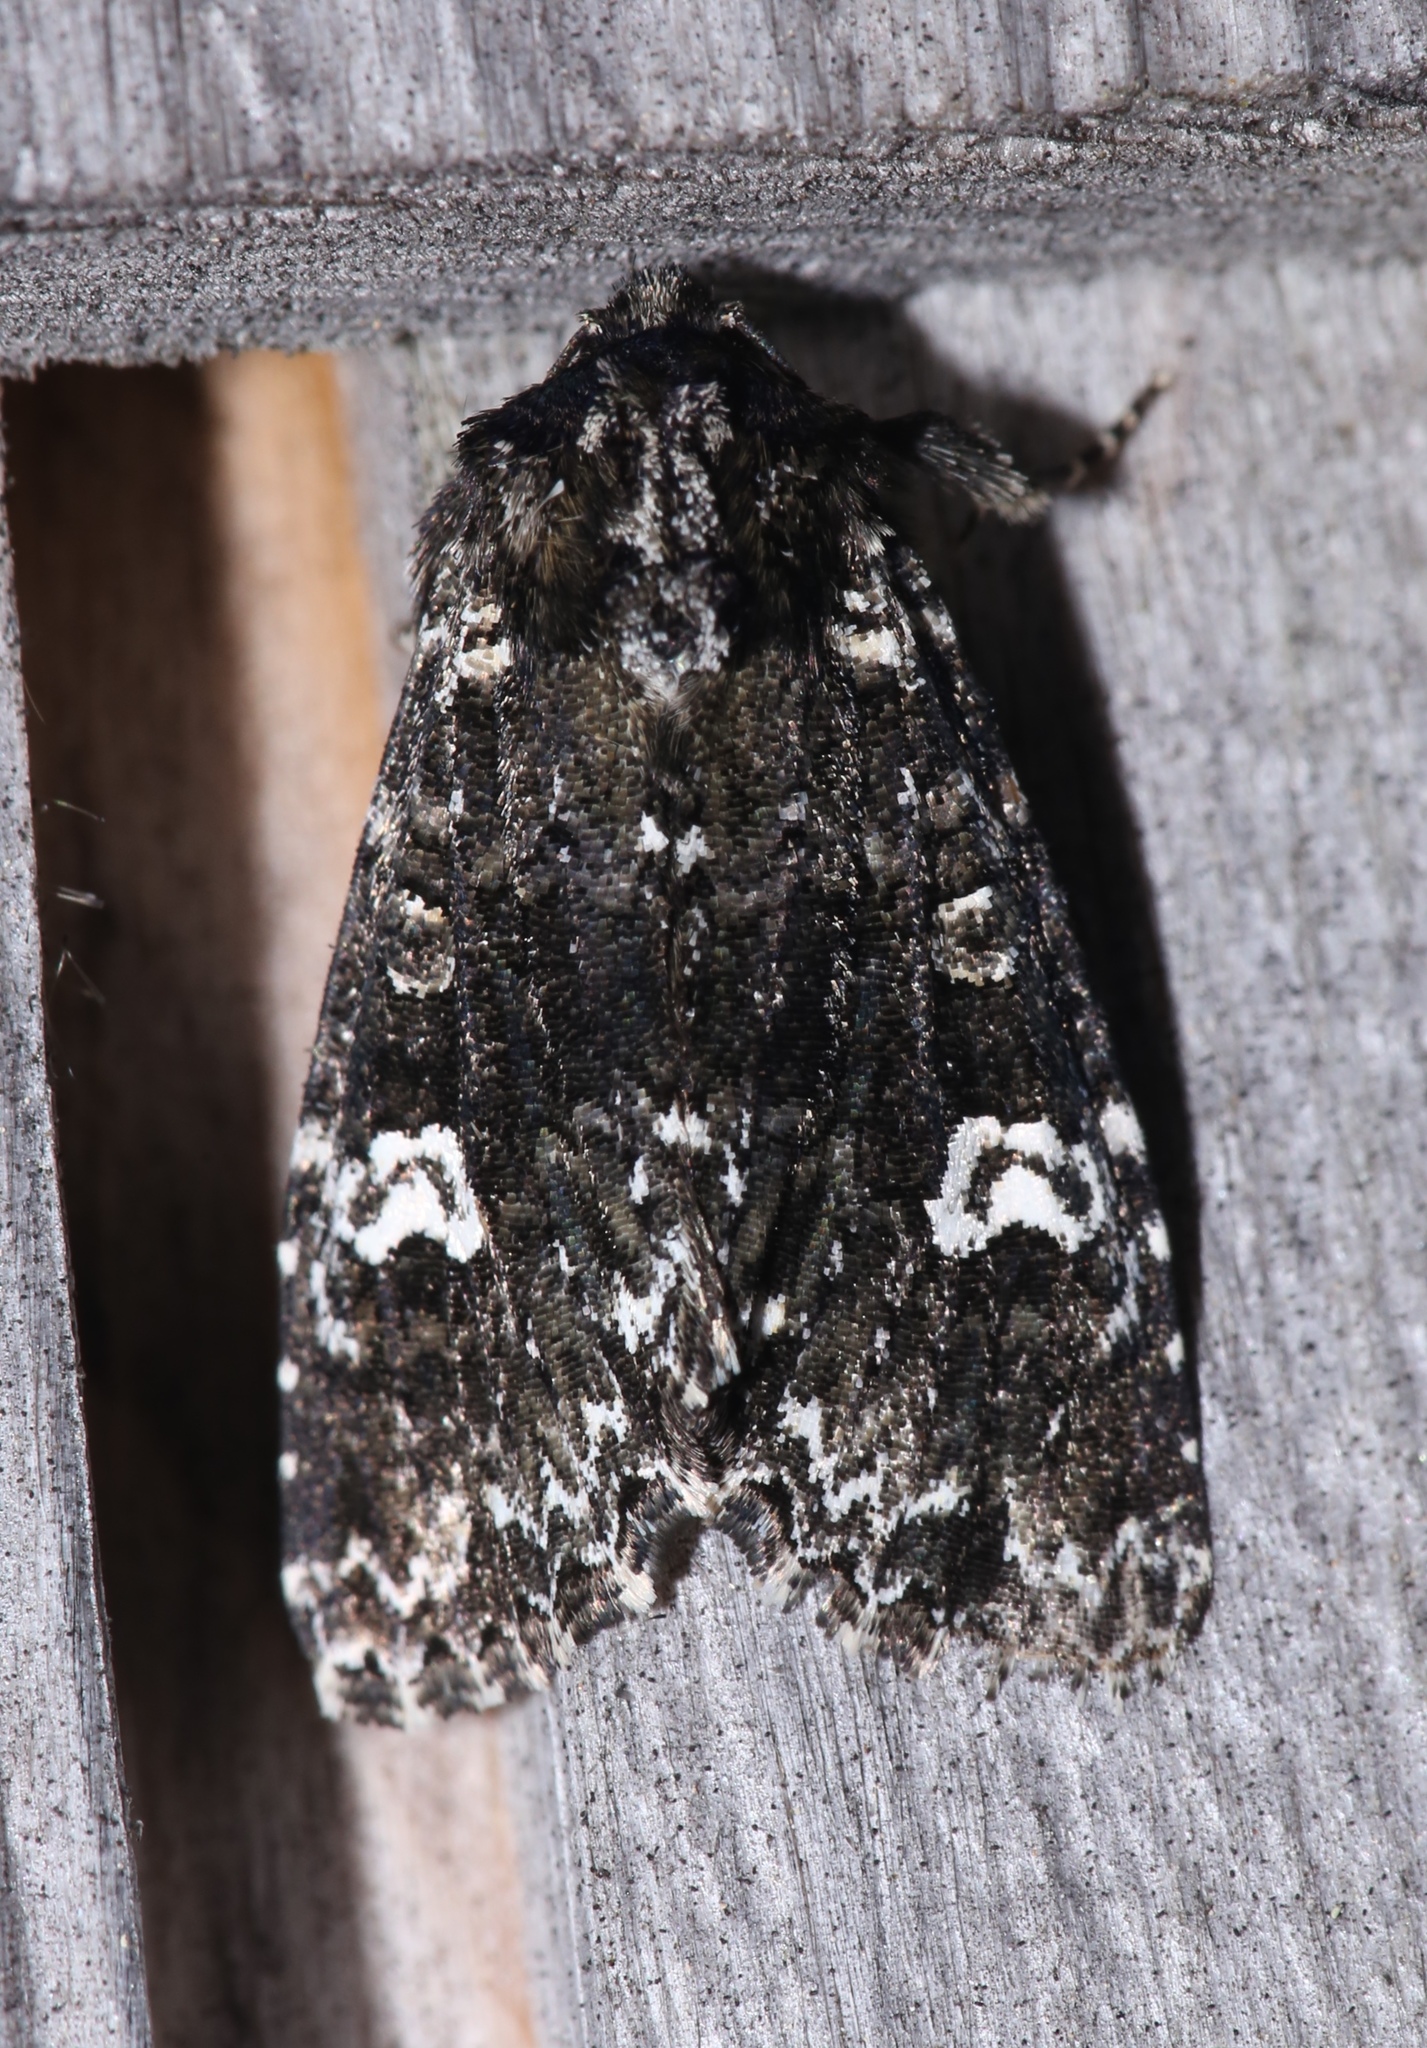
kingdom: Animalia
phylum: Arthropoda
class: Insecta
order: Lepidoptera
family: Noctuidae
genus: Melanchra
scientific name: Melanchra adjuncta
